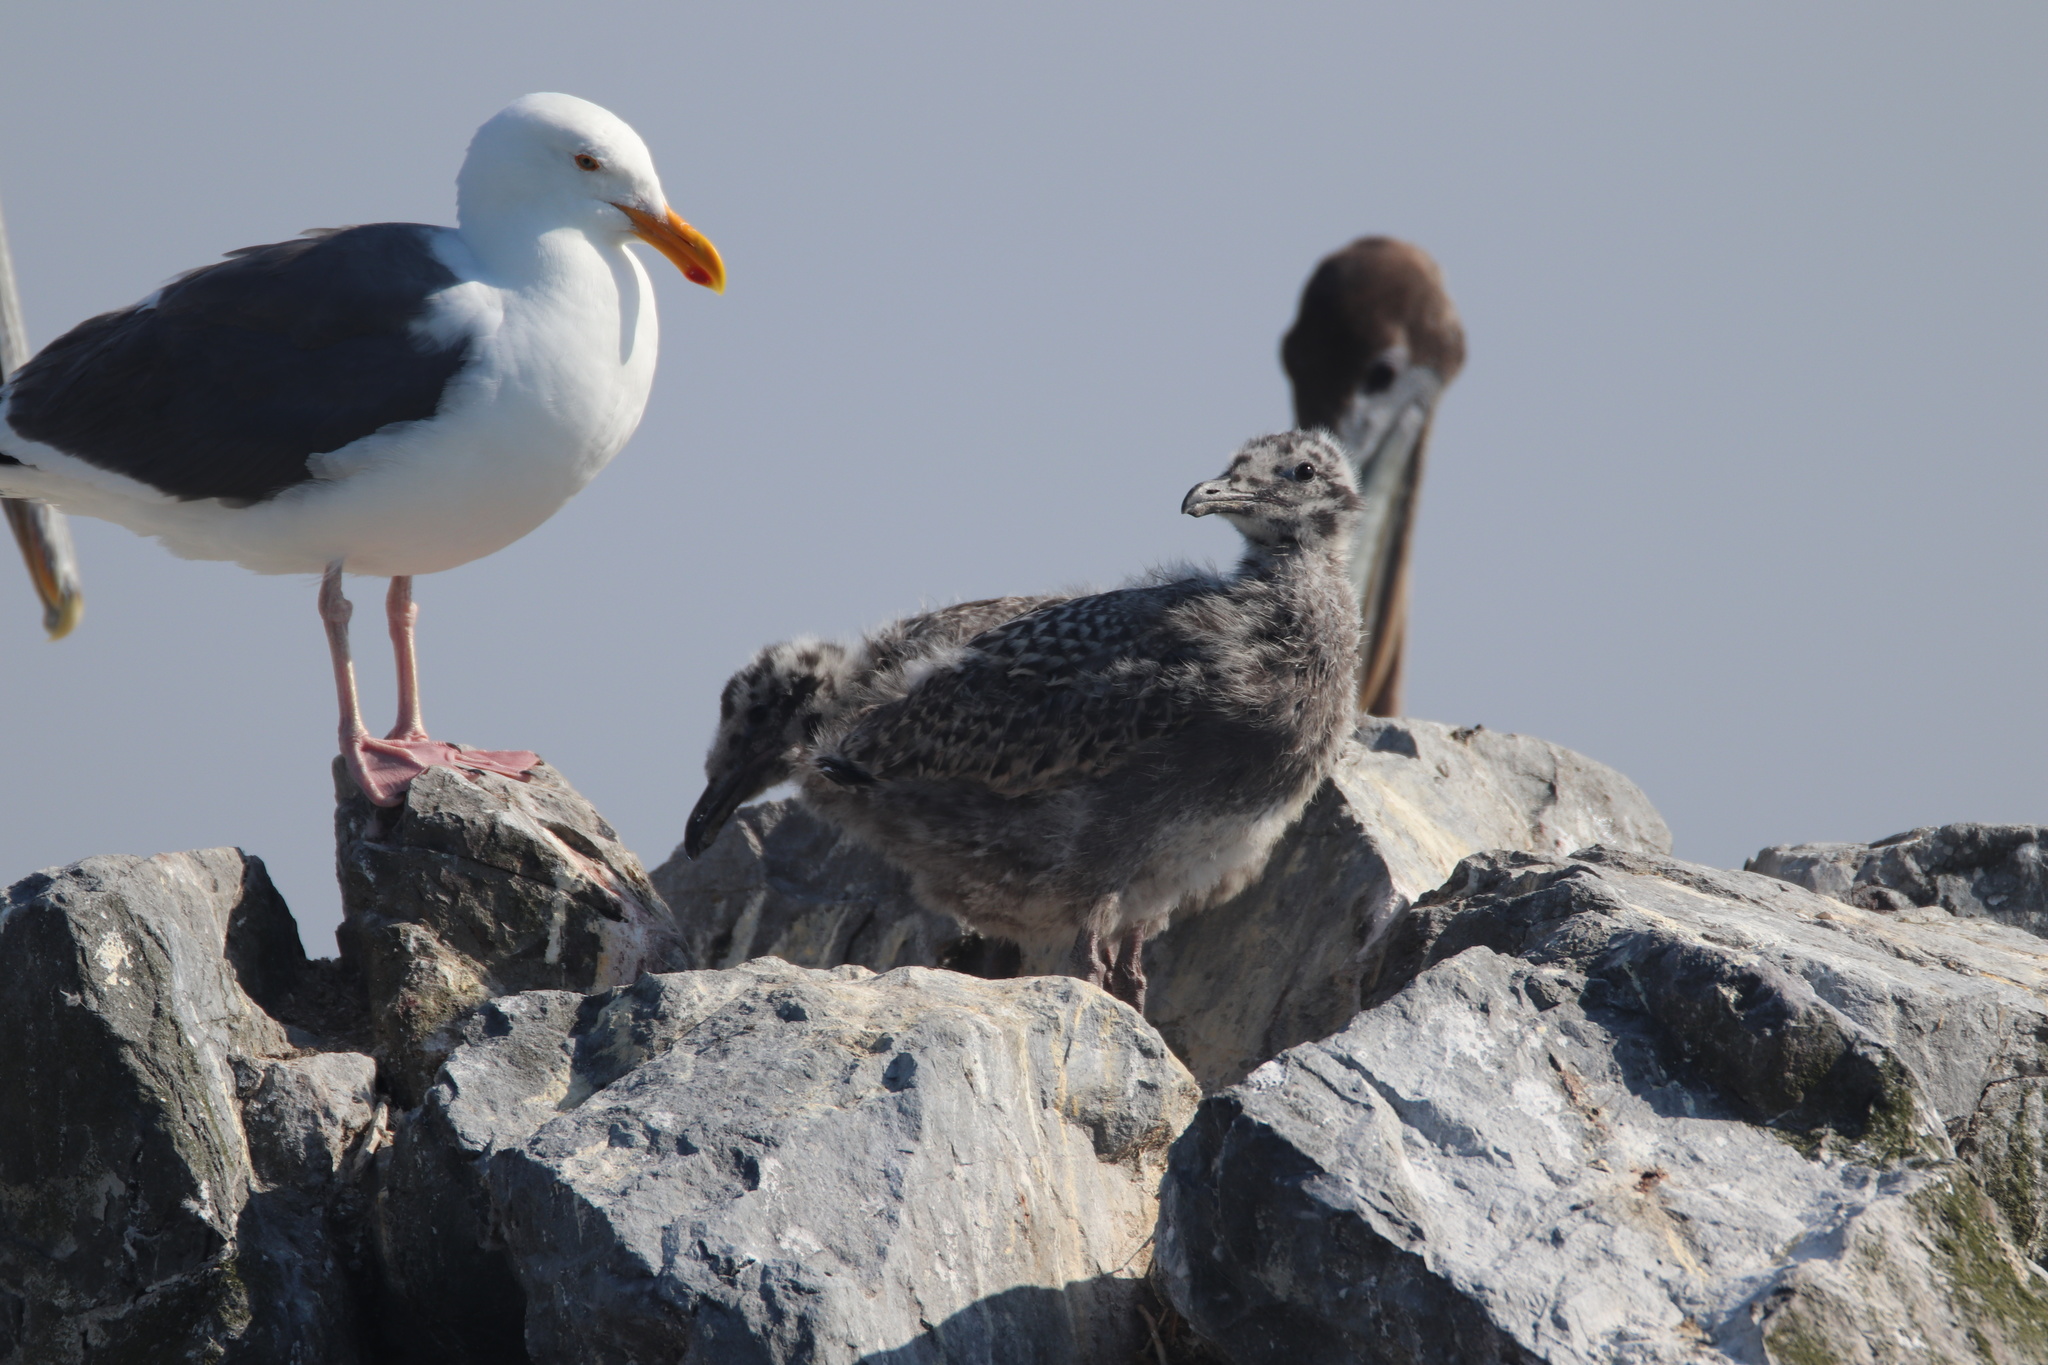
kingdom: Animalia
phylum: Chordata
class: Aves
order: Charadriiformes
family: Laridae
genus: Larus
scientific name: Larus occidentalis
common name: Western gull
